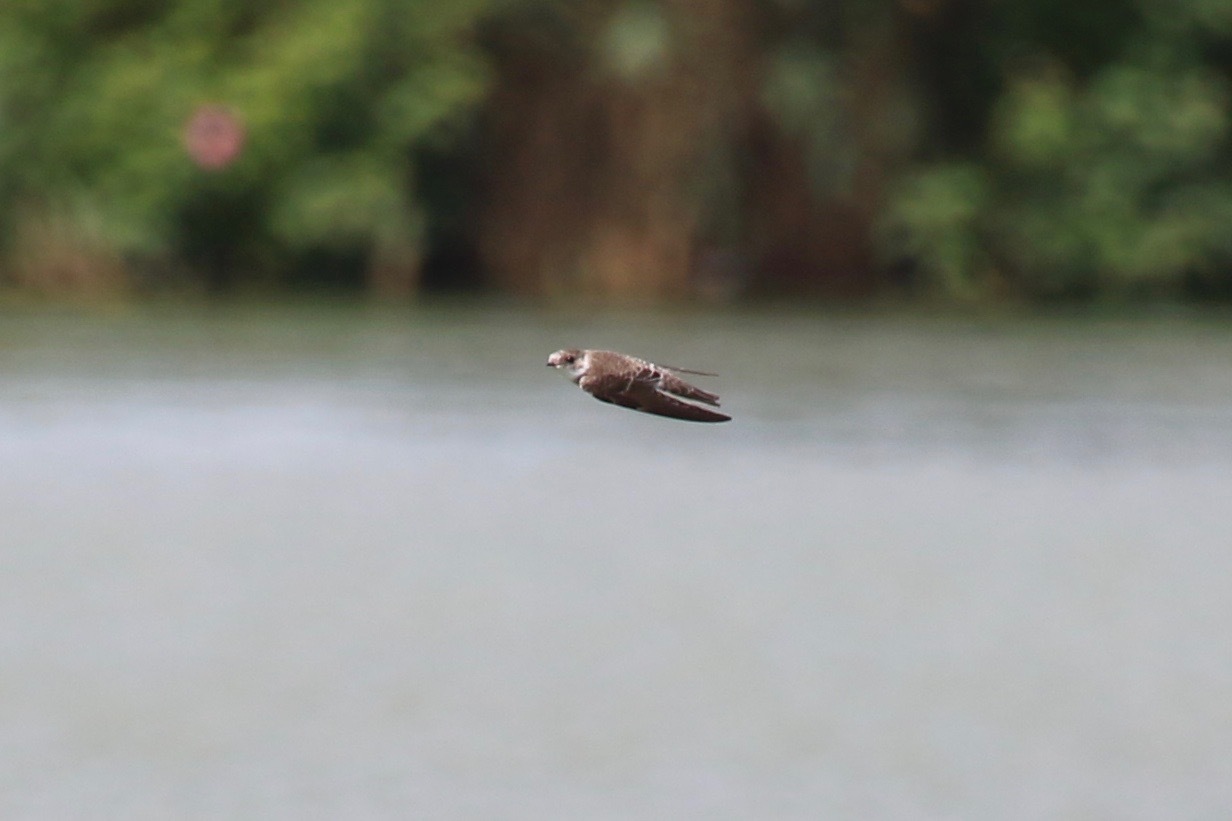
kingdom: Animalia
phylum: Chordata
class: Aves
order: Passeriformes
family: Hirundinidae
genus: Riparia
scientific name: Riparia riparia
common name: Sand martin
